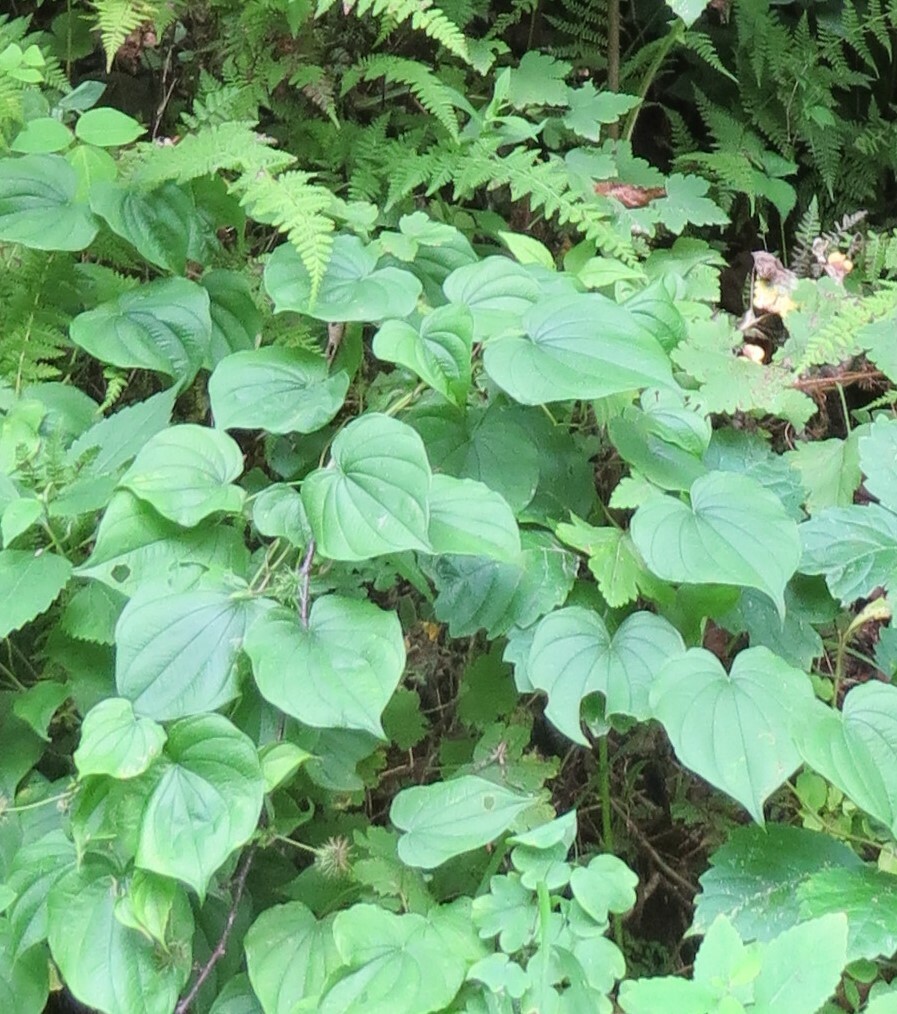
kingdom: Plantae
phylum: Tracheophyta
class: Liliopsida
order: Dioscoreales
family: Dioscoreaceae
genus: Dioscorea
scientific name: Dioscorea villosa
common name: Wild yam
